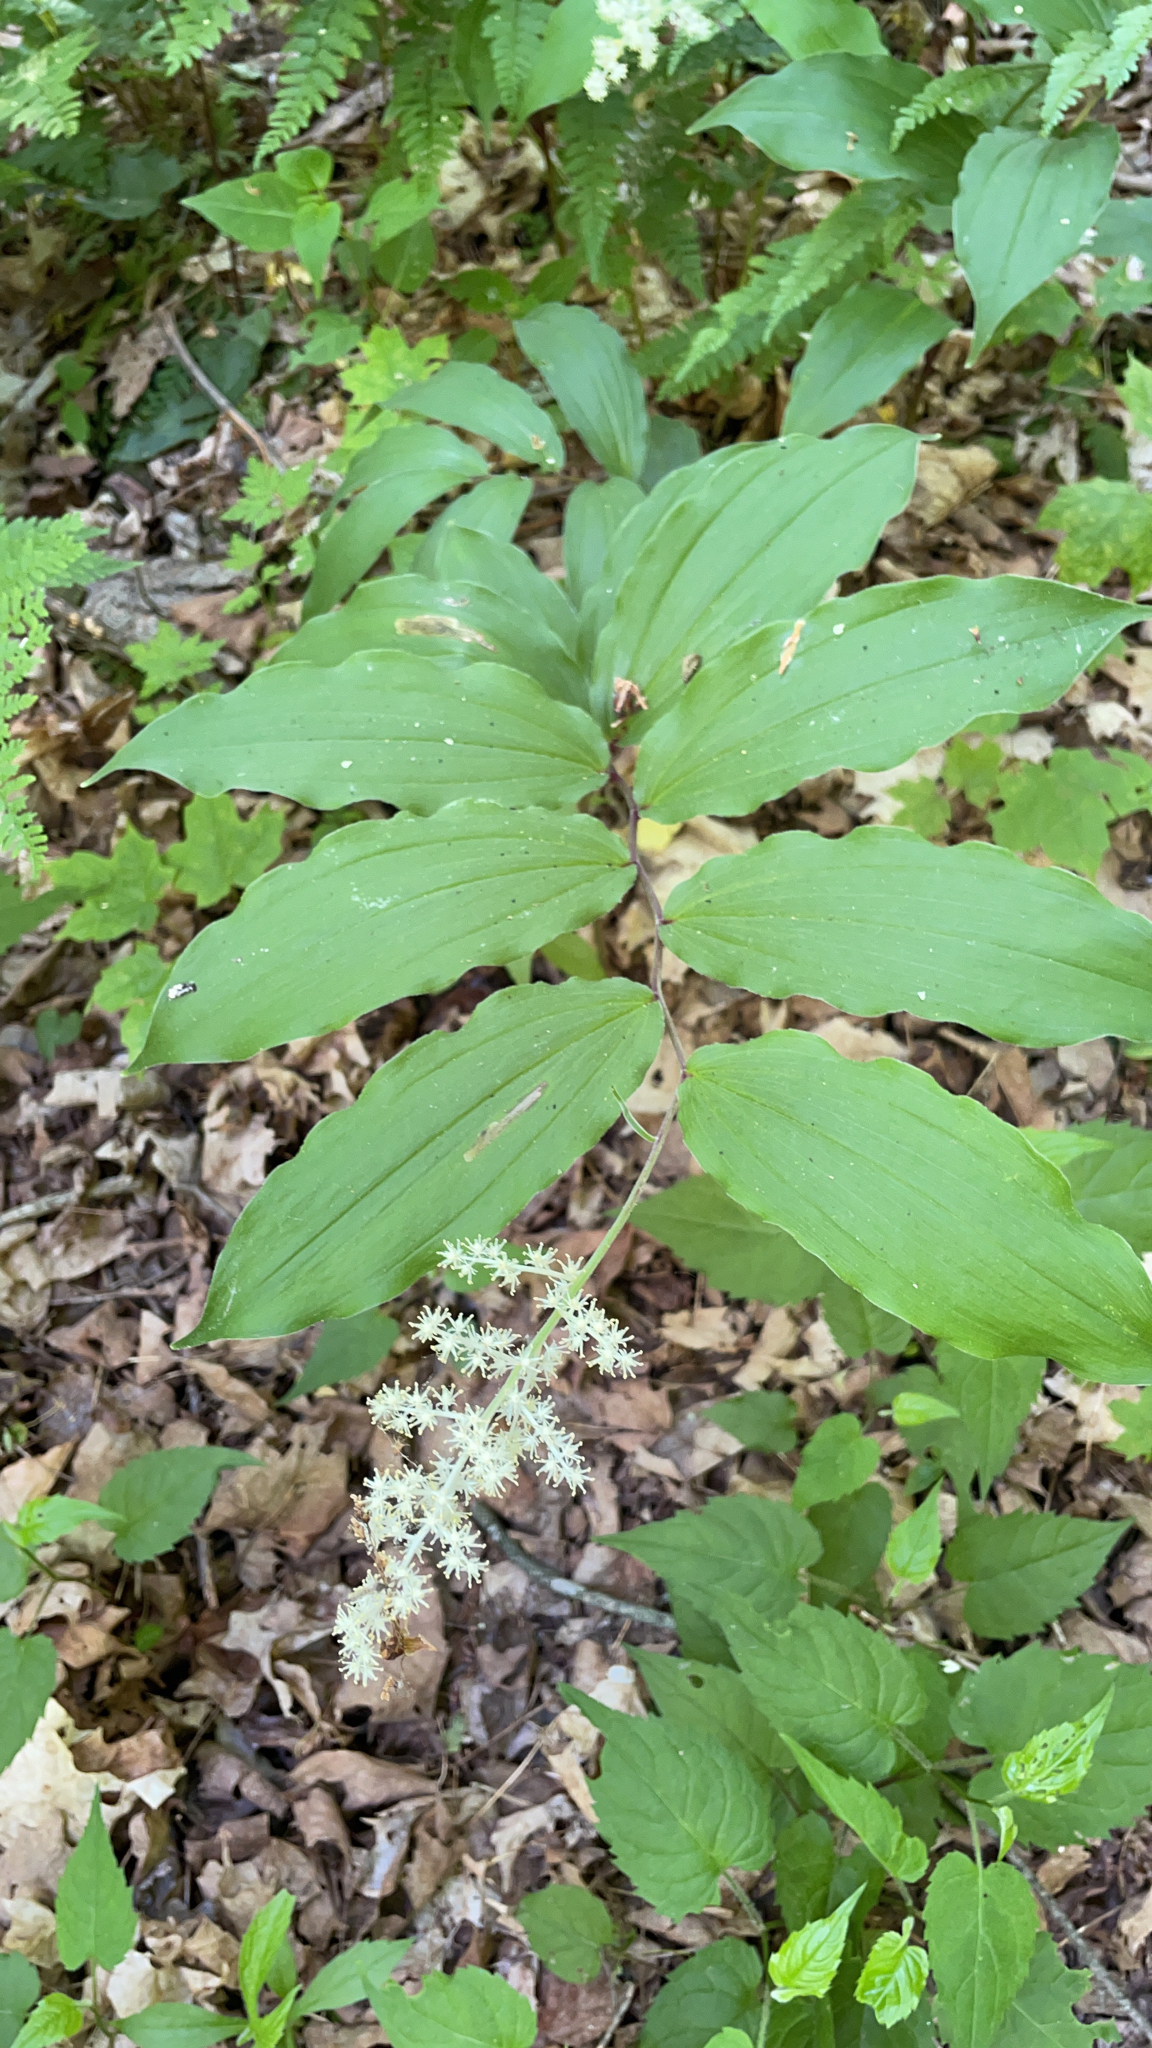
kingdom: Plantae
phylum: Tracheophyta
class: Liliopsida
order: Asparagales
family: Asparagaceae
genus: Maianthemum
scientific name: Maianthemum racemosum
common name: False spikenard
